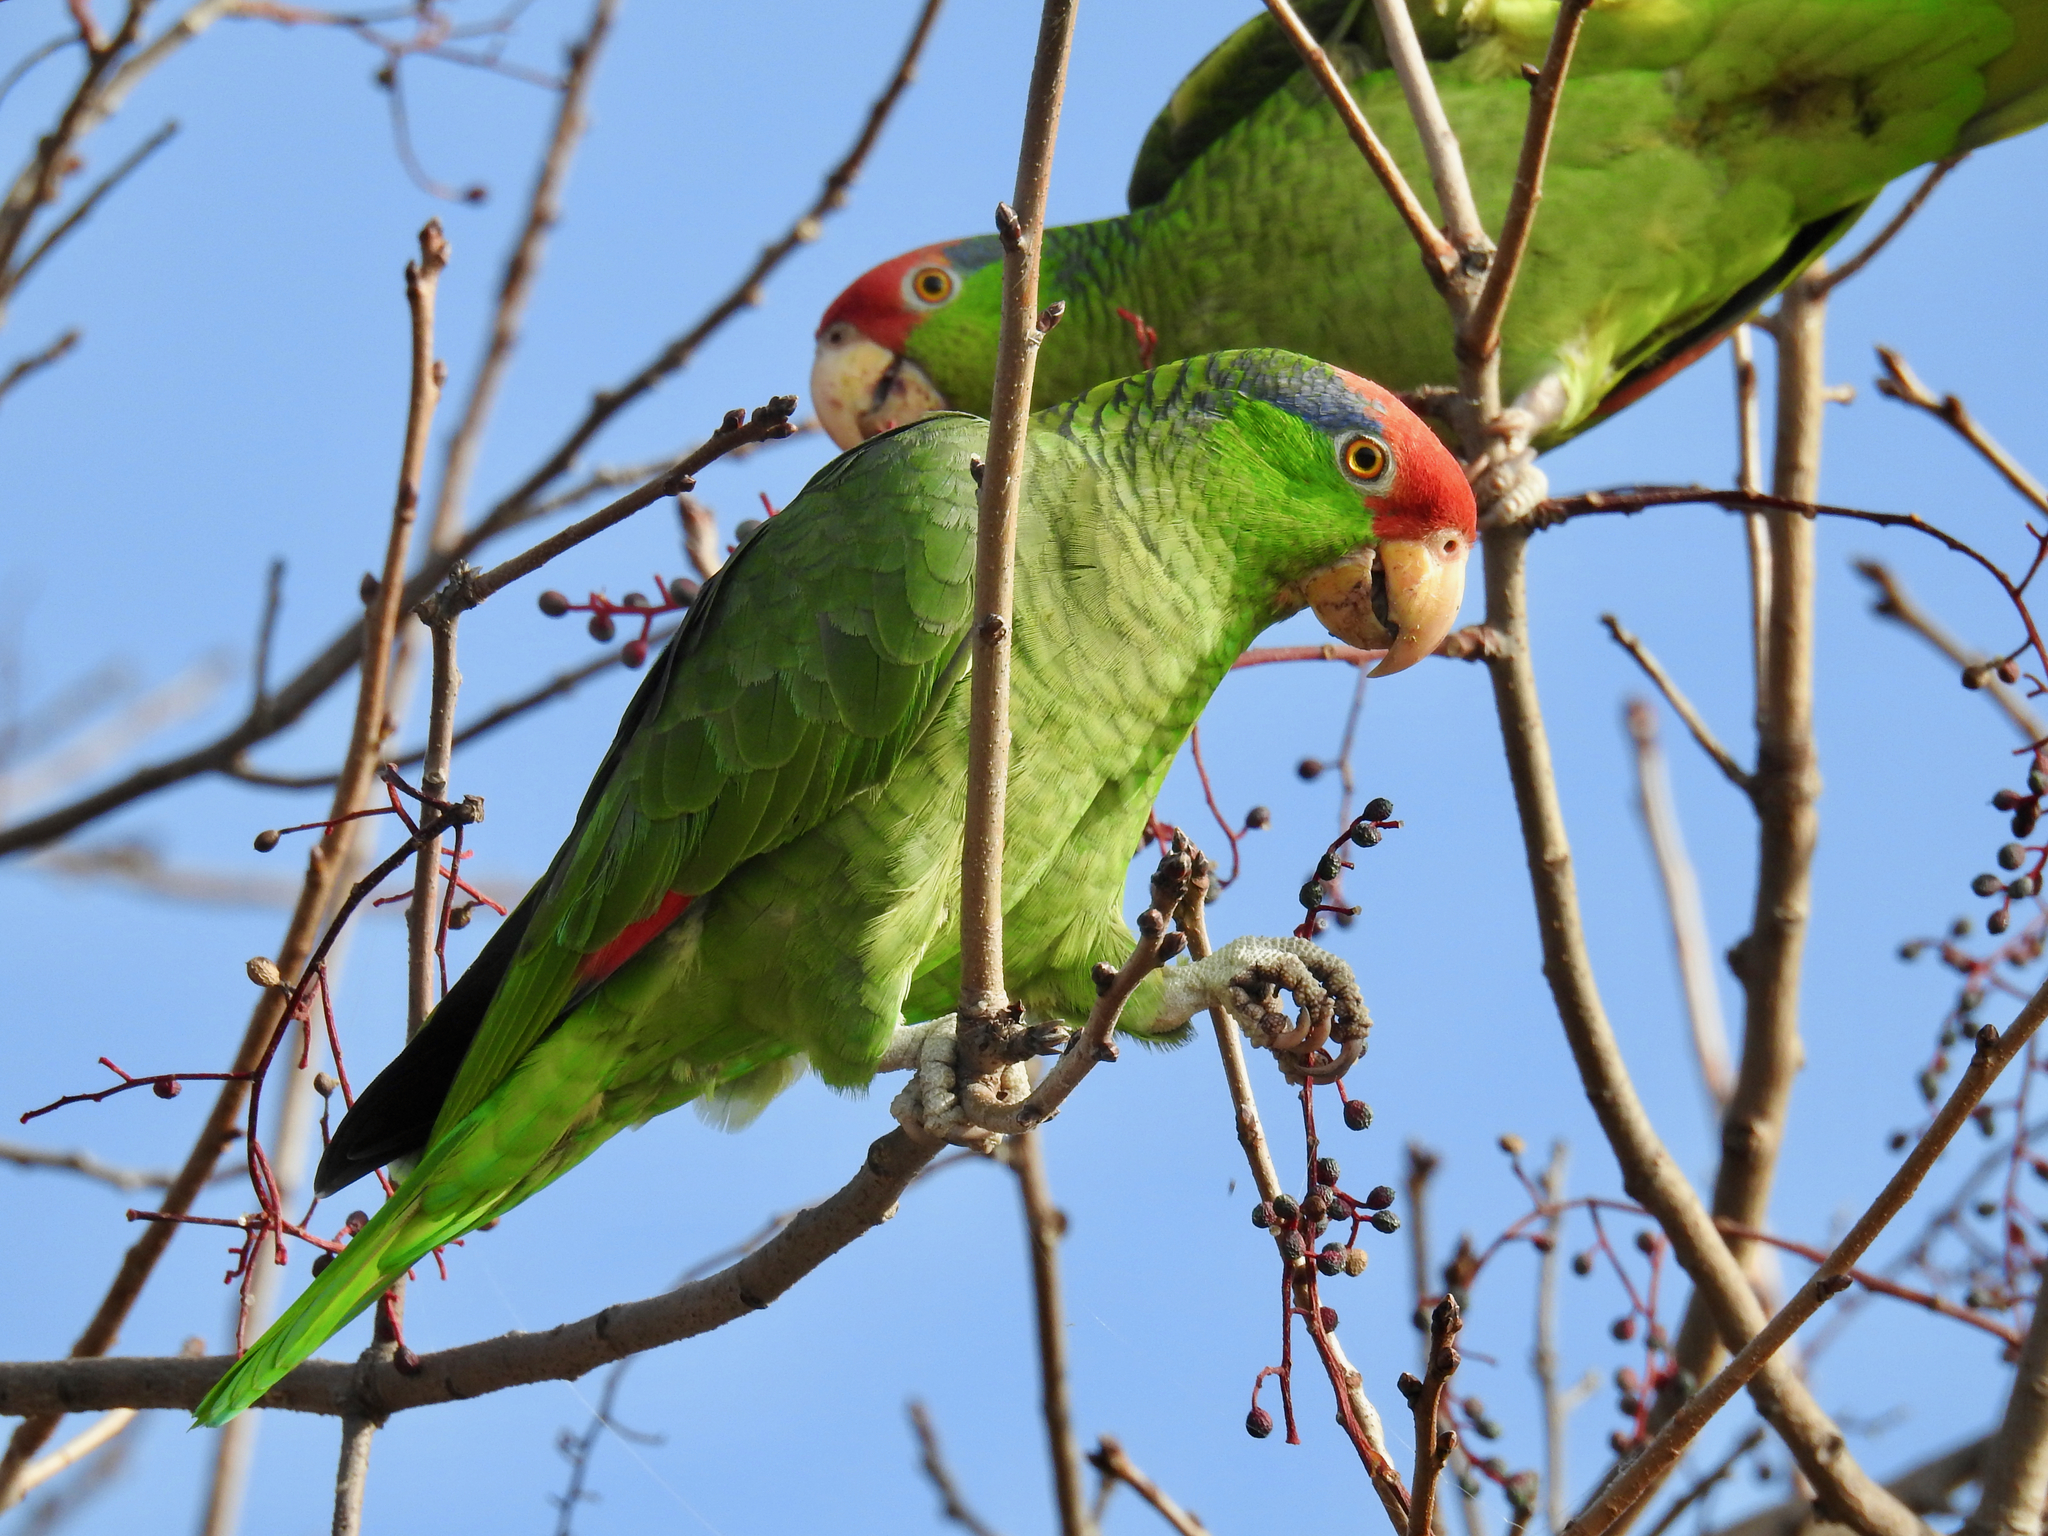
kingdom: Animalia
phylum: Chordata
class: Aves
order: Psittaciformes
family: Psittacidae
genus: Amazona
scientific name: Amazona viridigenalis
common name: Red-crowned amazon
